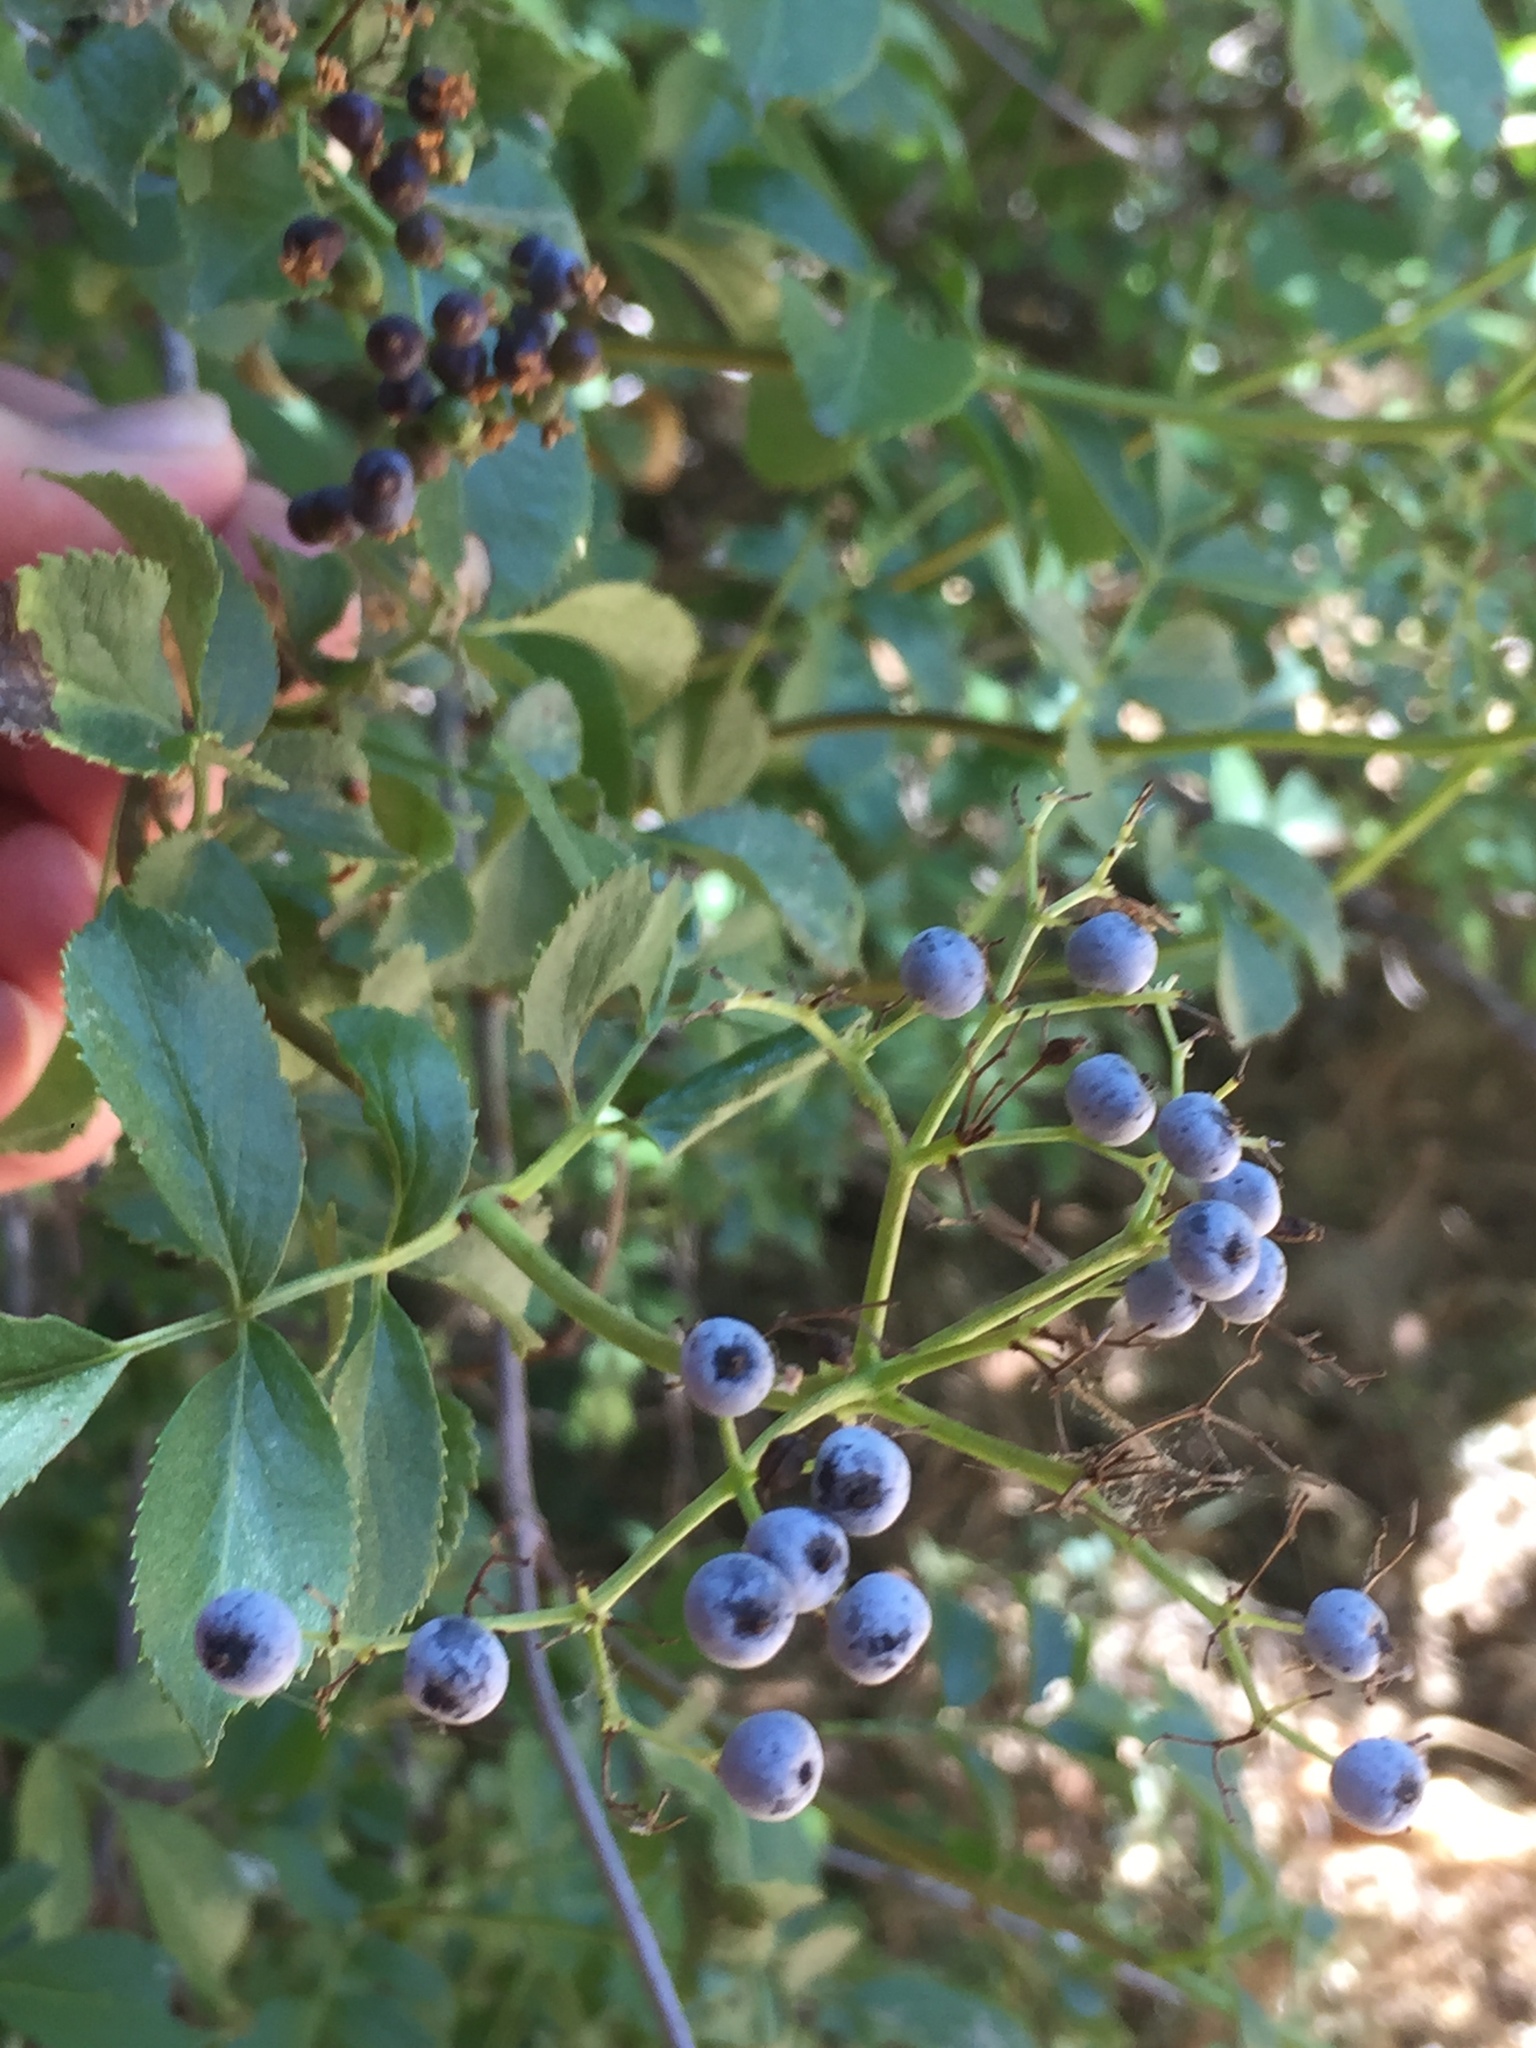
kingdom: Plantae
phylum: Tracheophyta
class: Magnoliopsida
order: Dipsacales
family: Viburnaceae
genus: Sambucus
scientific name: Sambucus cerulea
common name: Blue elder
